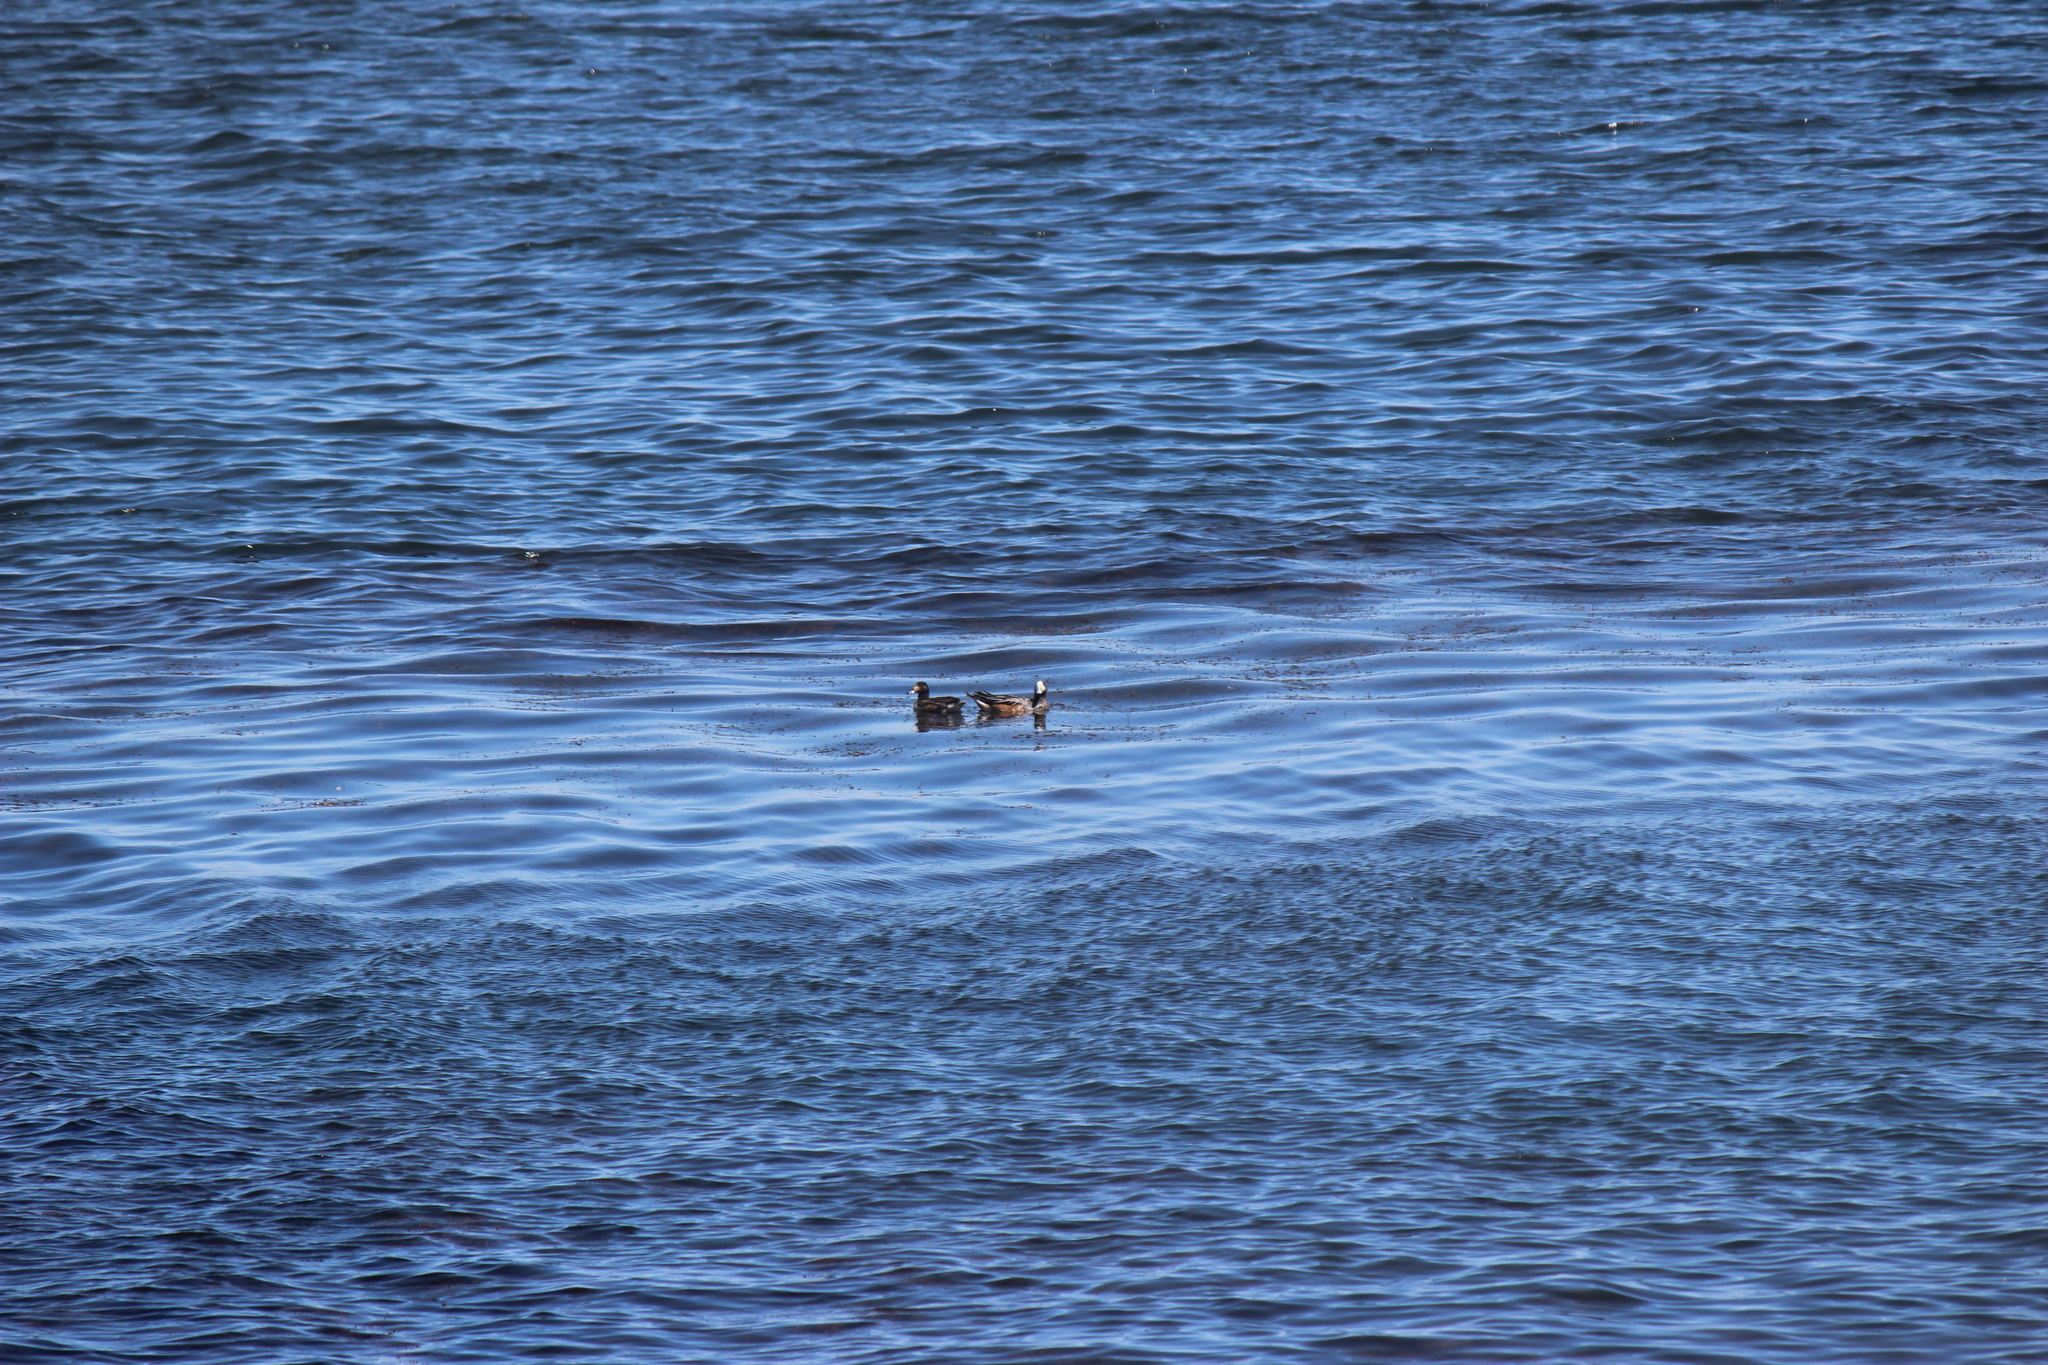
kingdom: Animalia
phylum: Chordata
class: Aves
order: Anseriformes
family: Anatidae
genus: Mareca
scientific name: Mareca sibilatrix
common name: Chiloe wigeon
